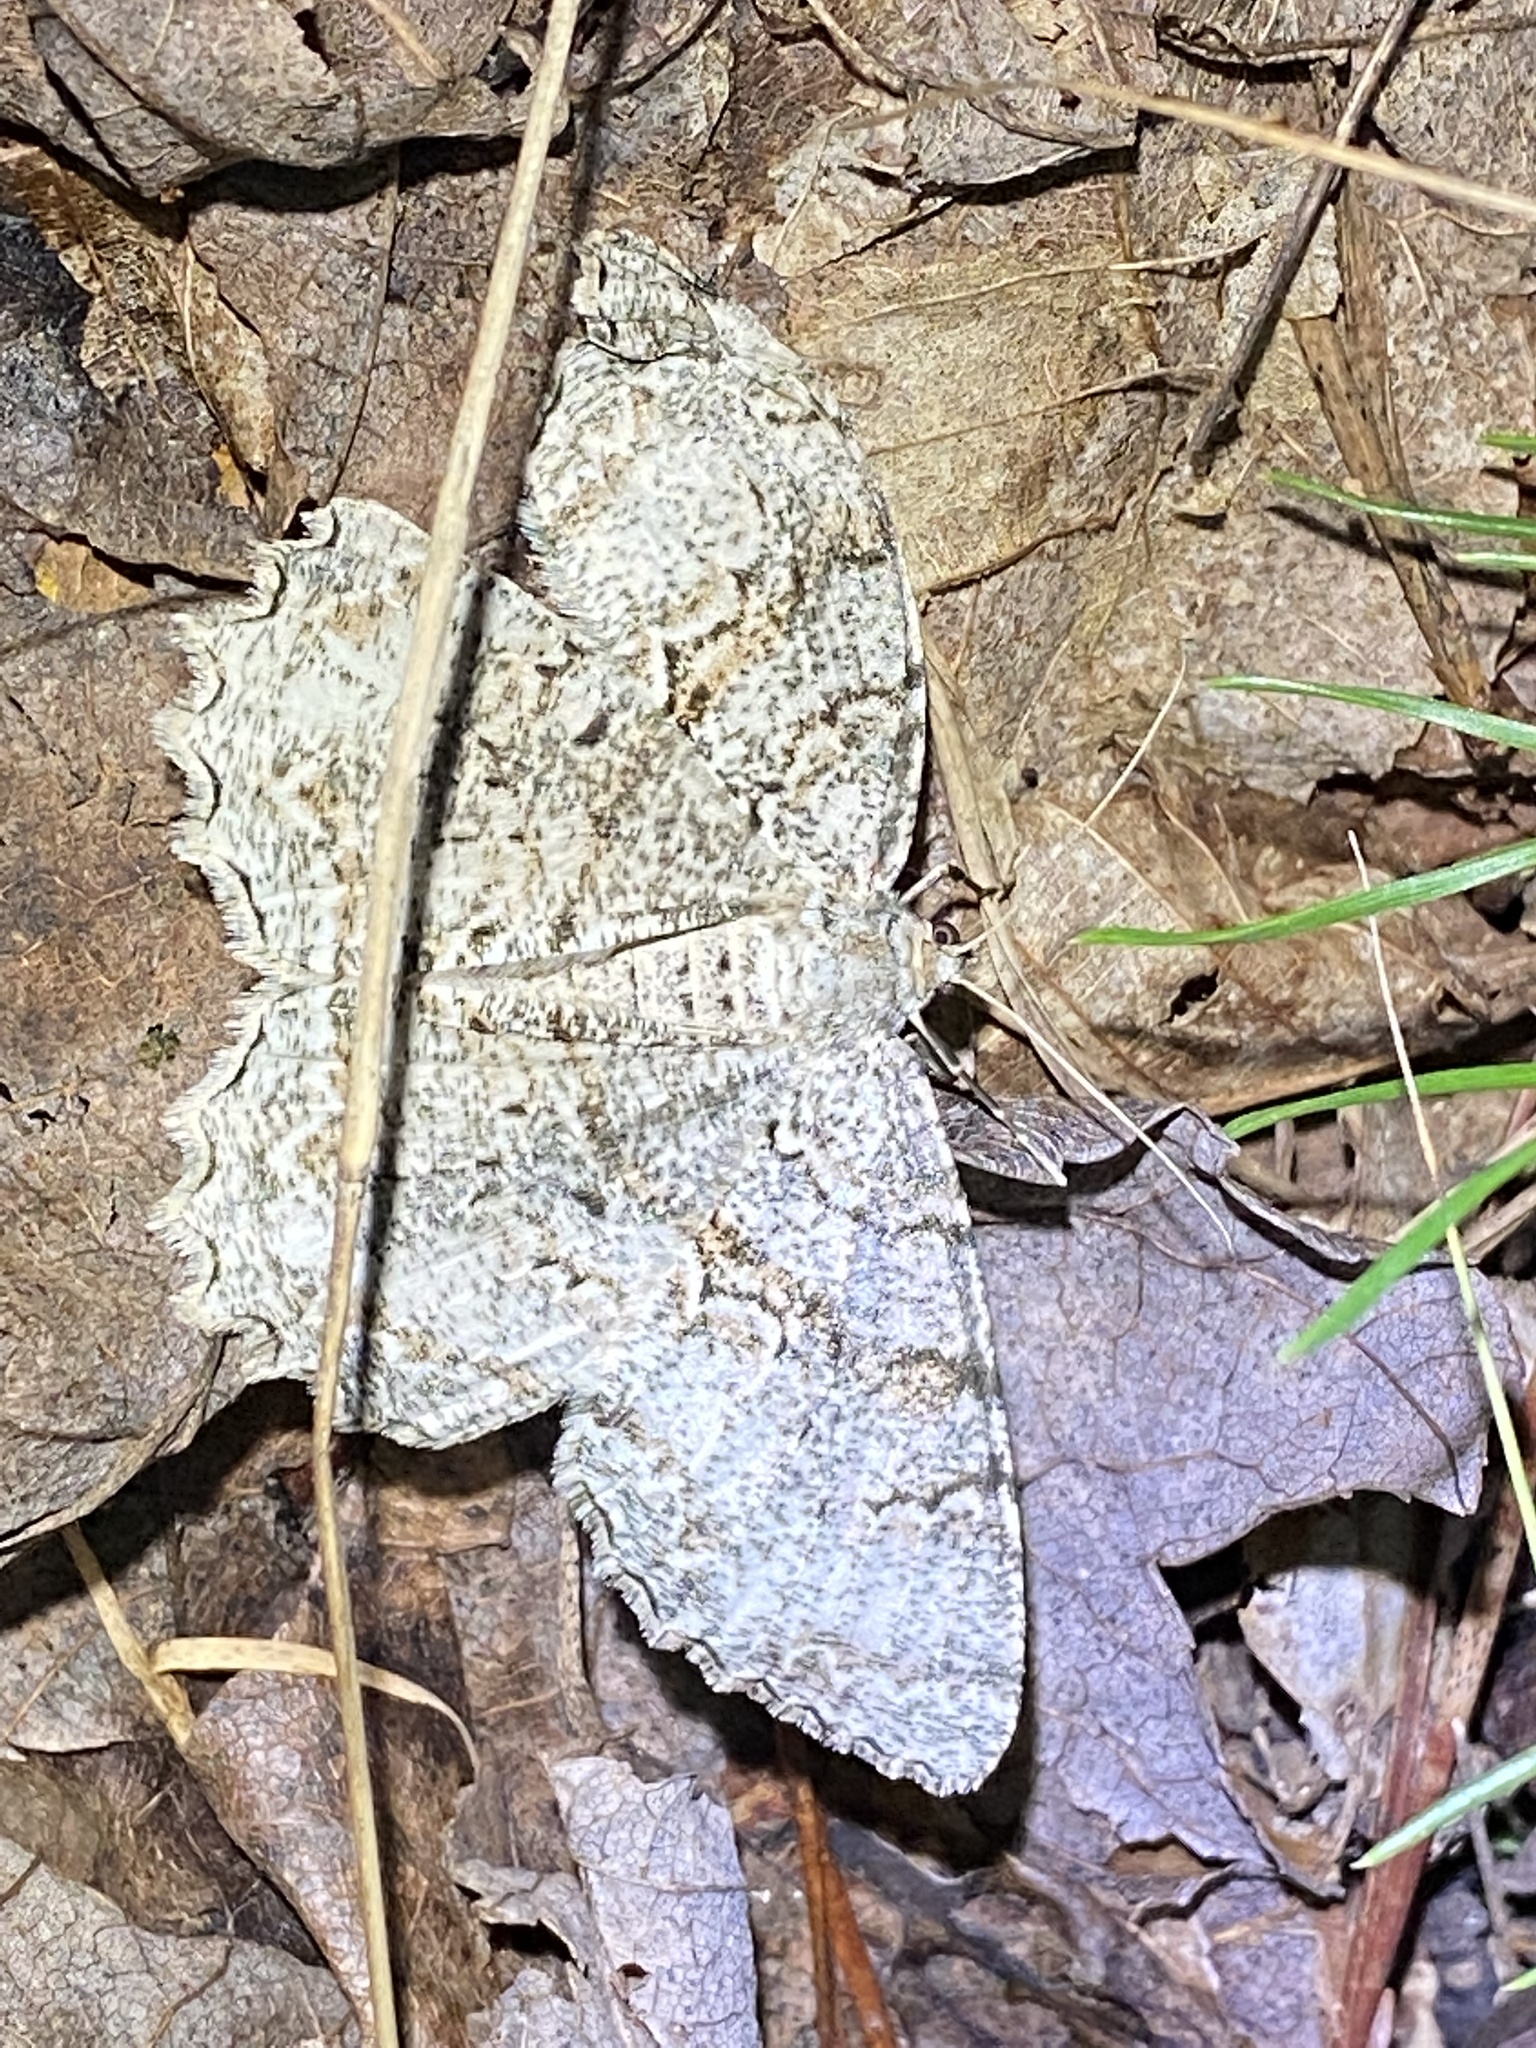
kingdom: Animalia
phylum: Arthropoda
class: Insecta
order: Lepidoptera
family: Geometridae
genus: Epimecis
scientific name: Epimecis hortaria
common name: Tulip-tree beauty
